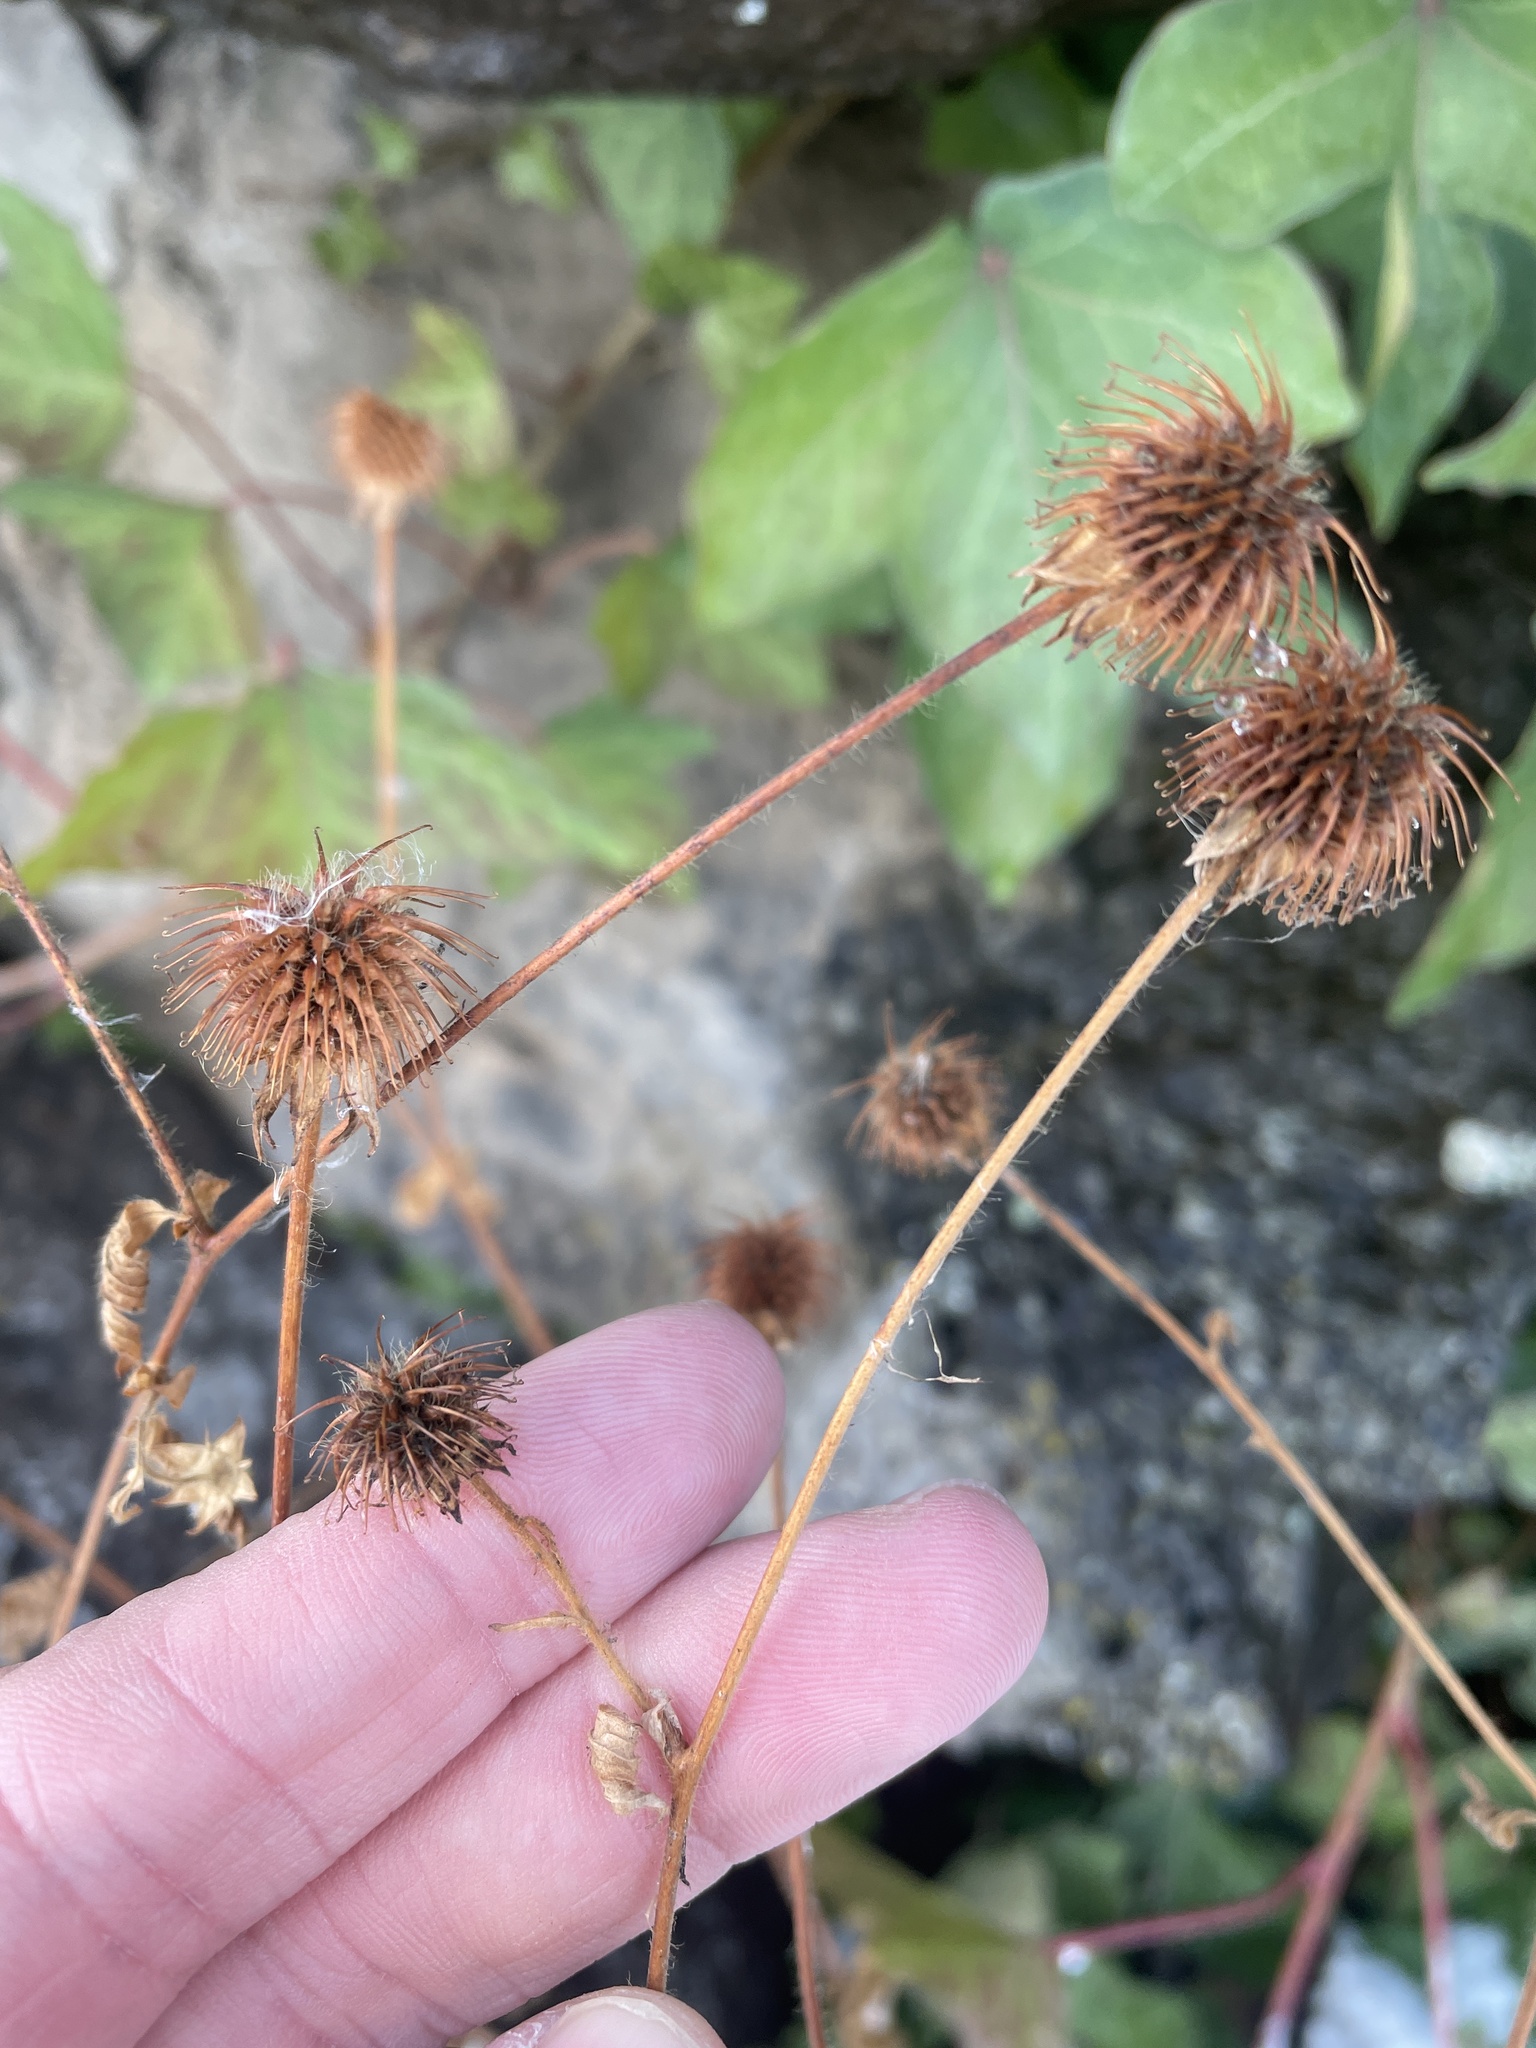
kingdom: Plantae
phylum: Tracheophyta
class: Magnoliopsida
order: Rosales
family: Rosaceae
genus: Geum
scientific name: Geum macrophyllum
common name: Large-leaved avens
